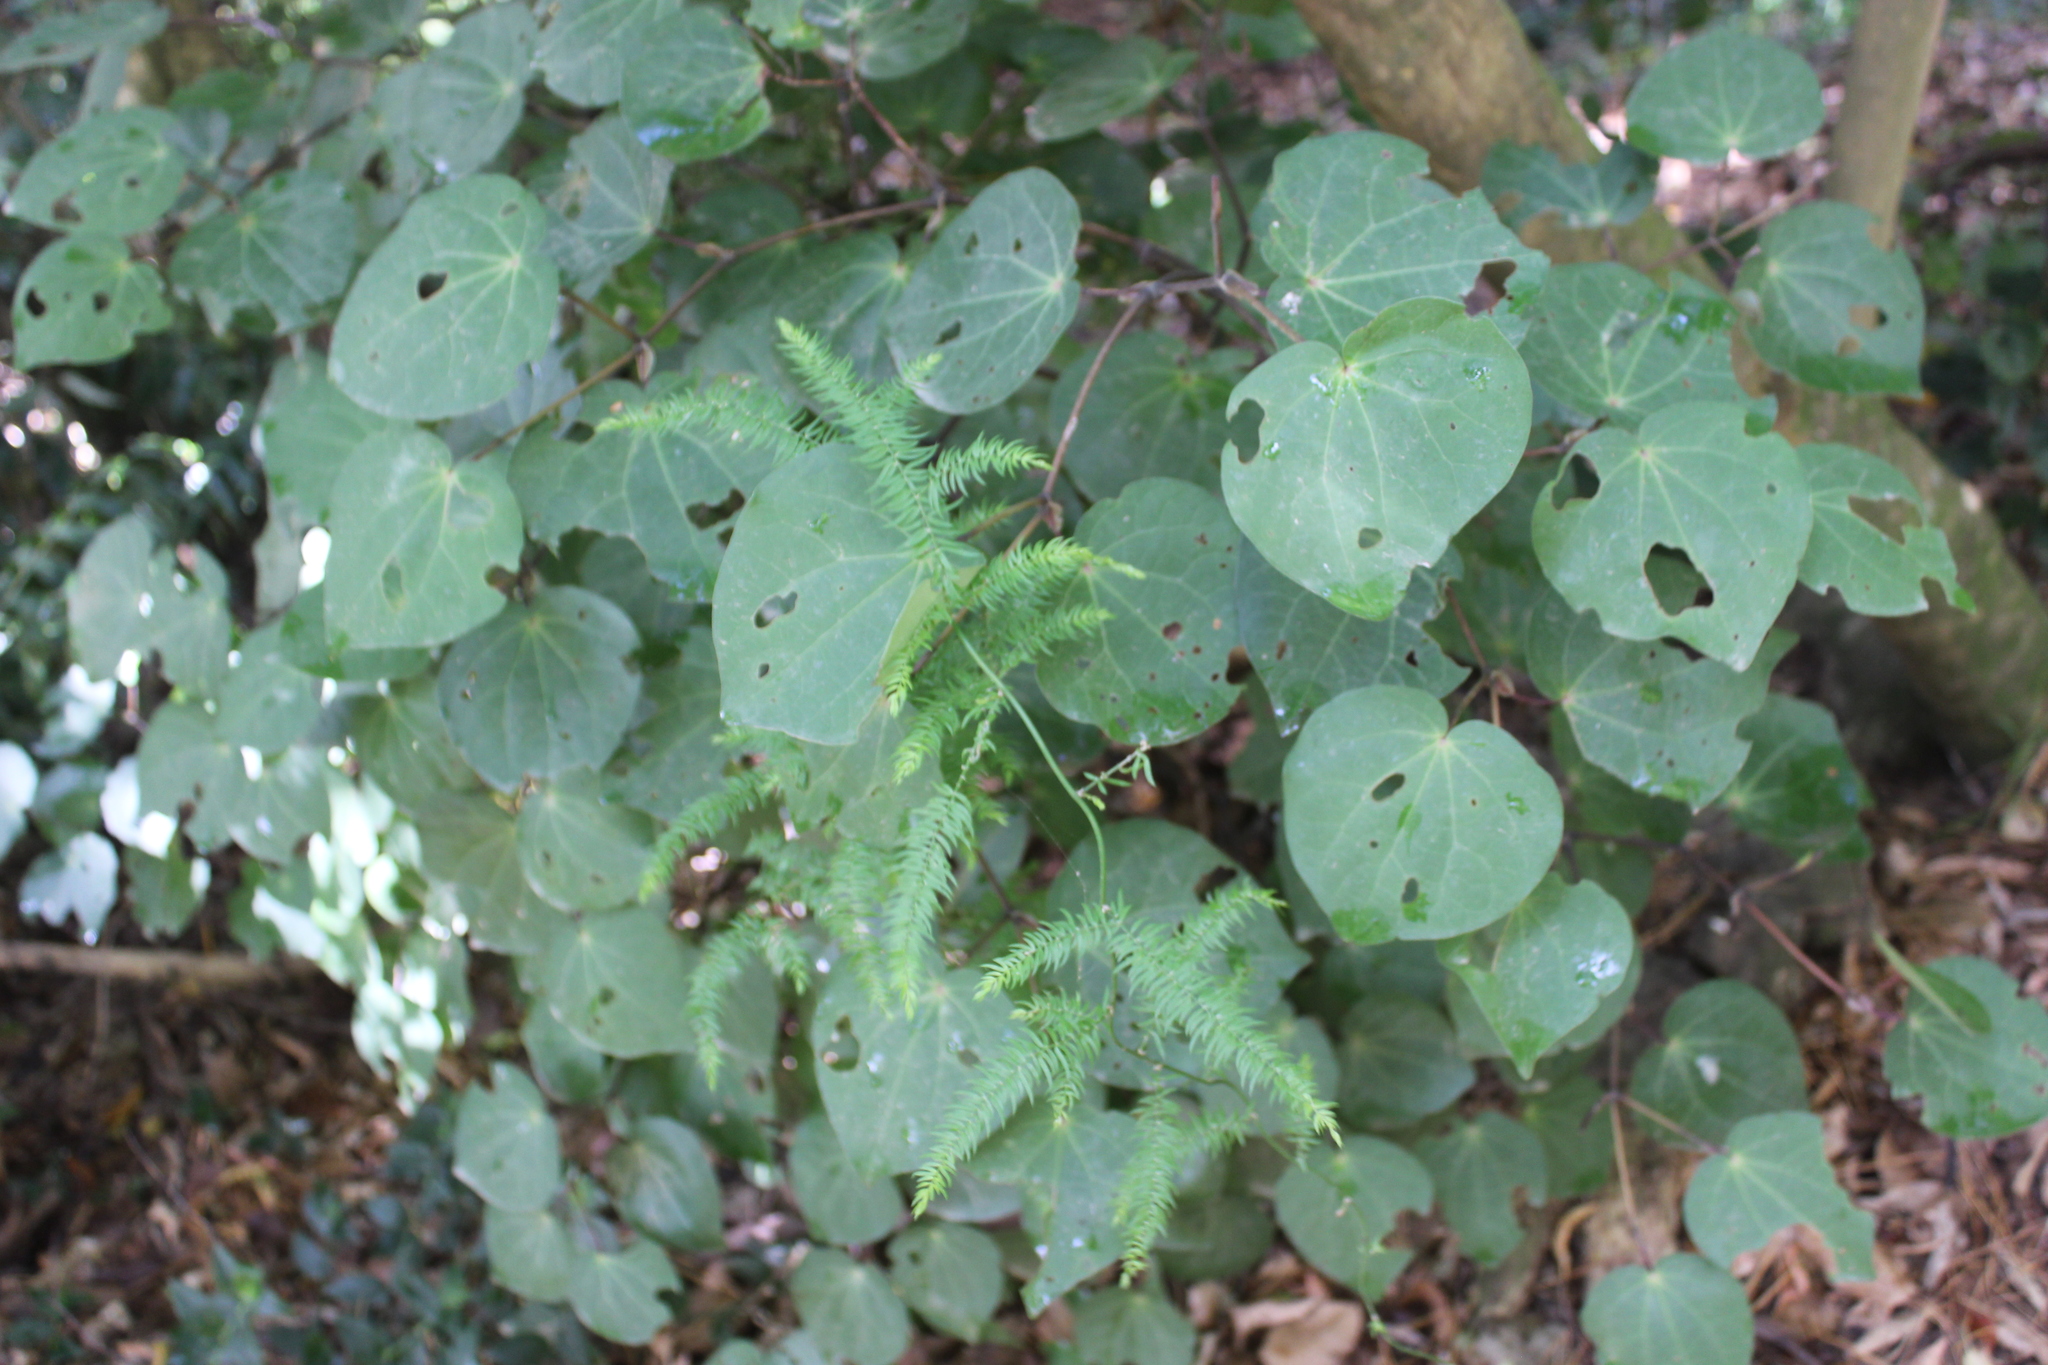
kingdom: Plantae
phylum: Tracheophyta
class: Magnoliopsida
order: Piperales
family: Piperaceae
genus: Macropiper
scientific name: Macropiper excelsum
